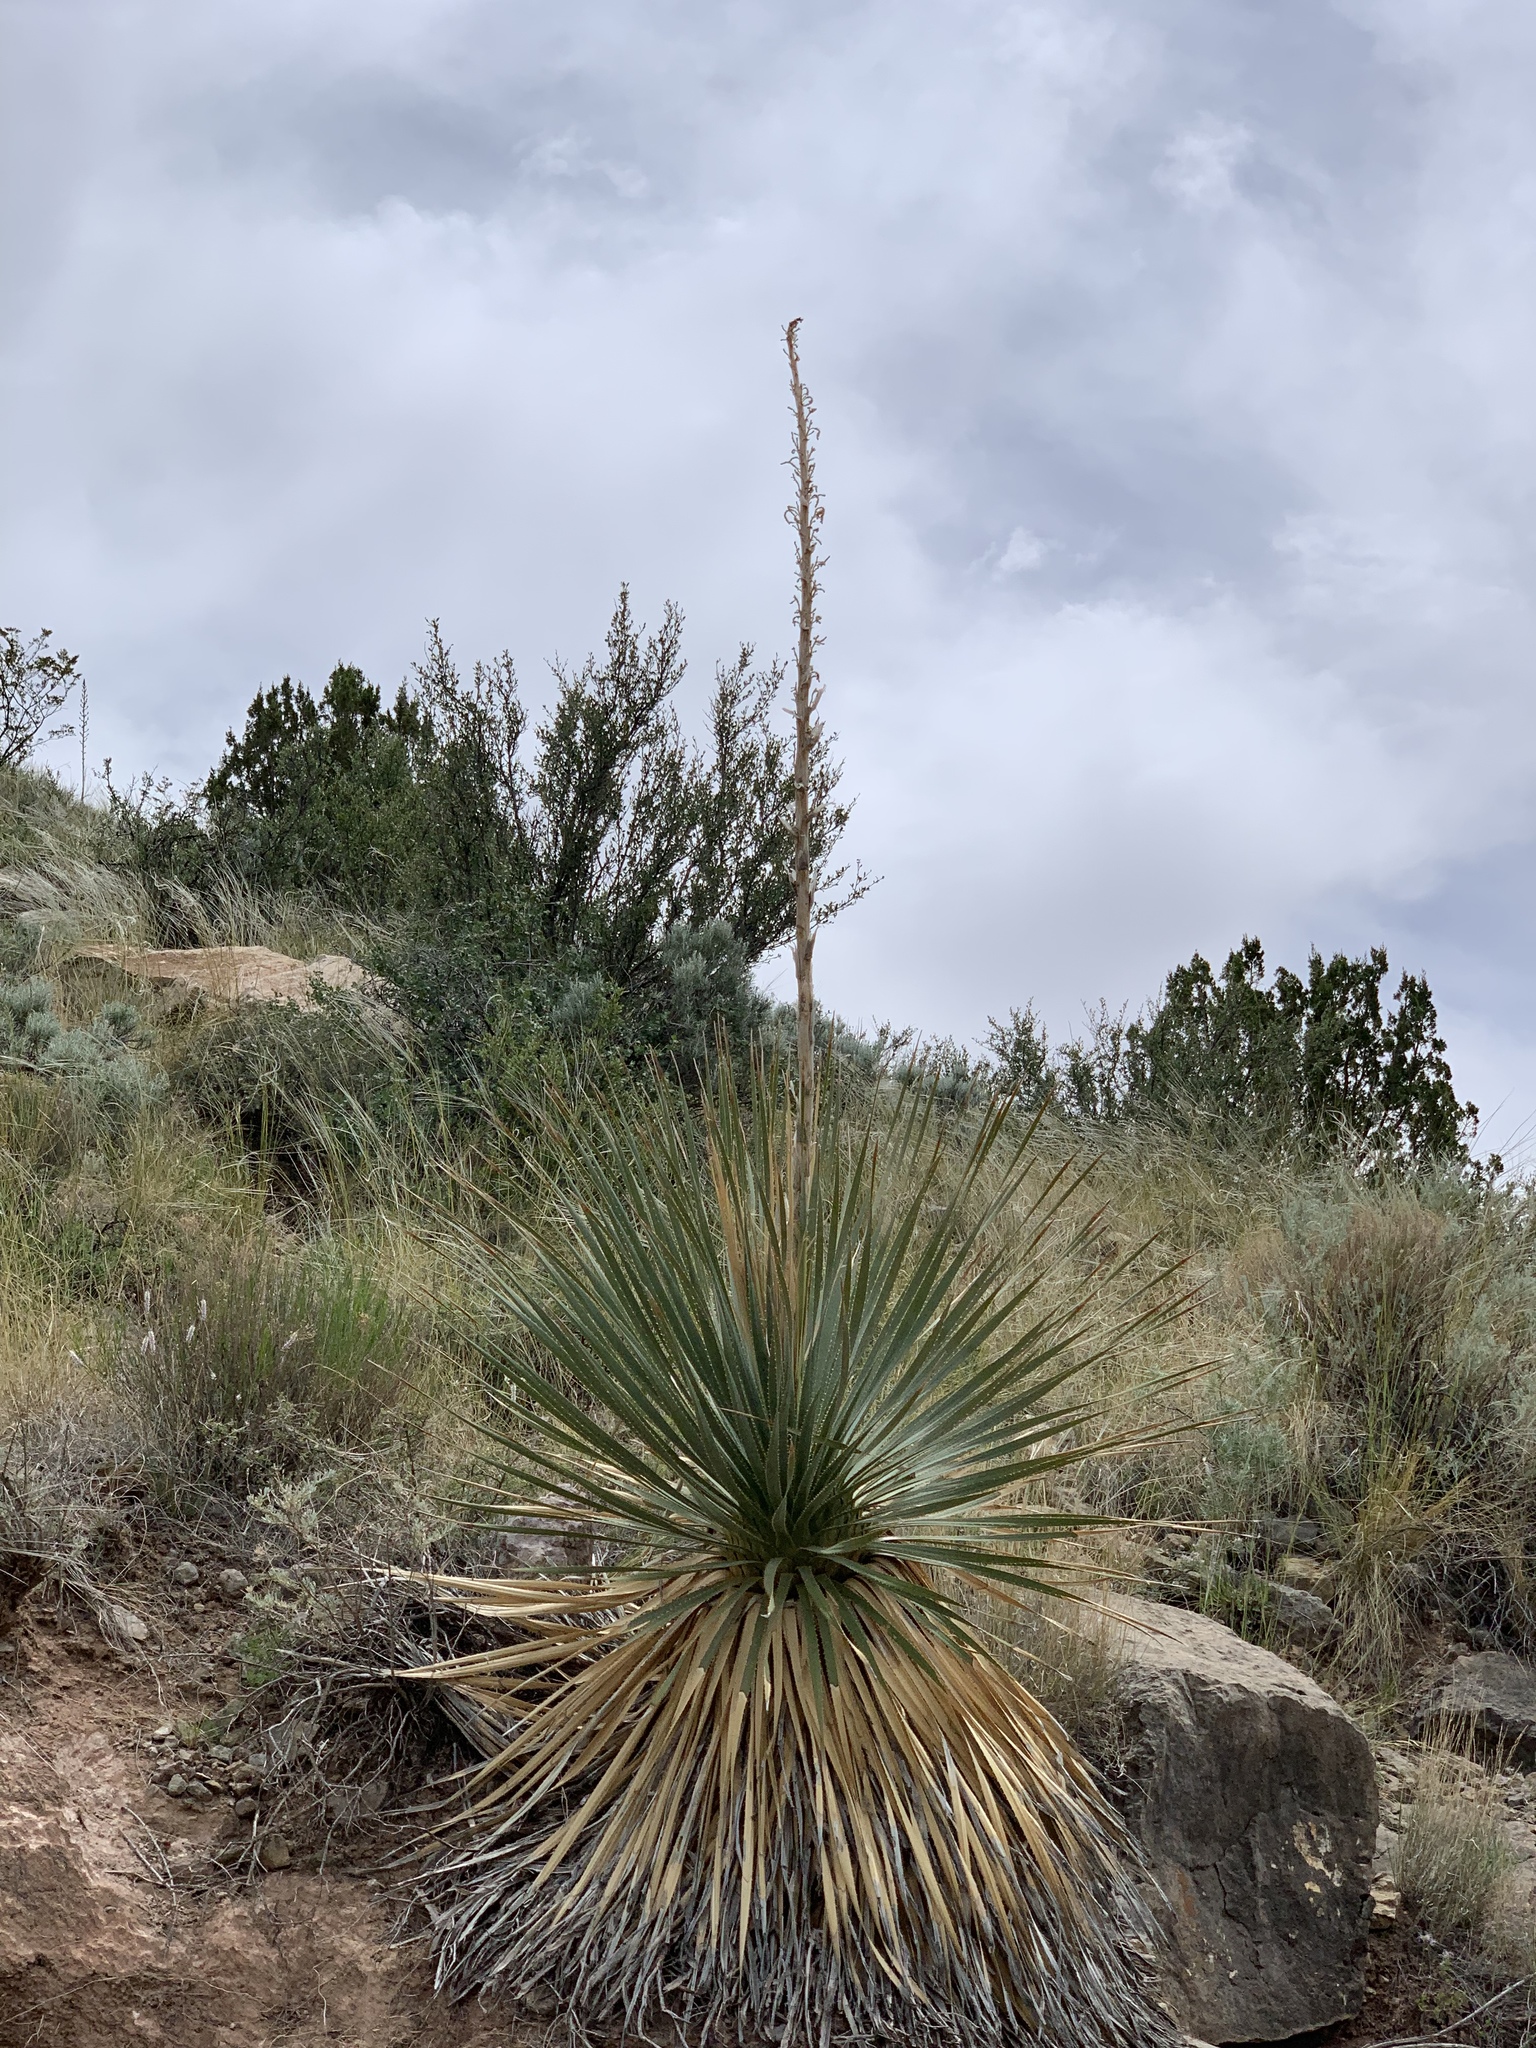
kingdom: Plantae
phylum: Tracheophyta
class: Liliopsida
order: Asparagales
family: Asparagaceae
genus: Dasylirion
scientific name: Dasylirion wheeleri
